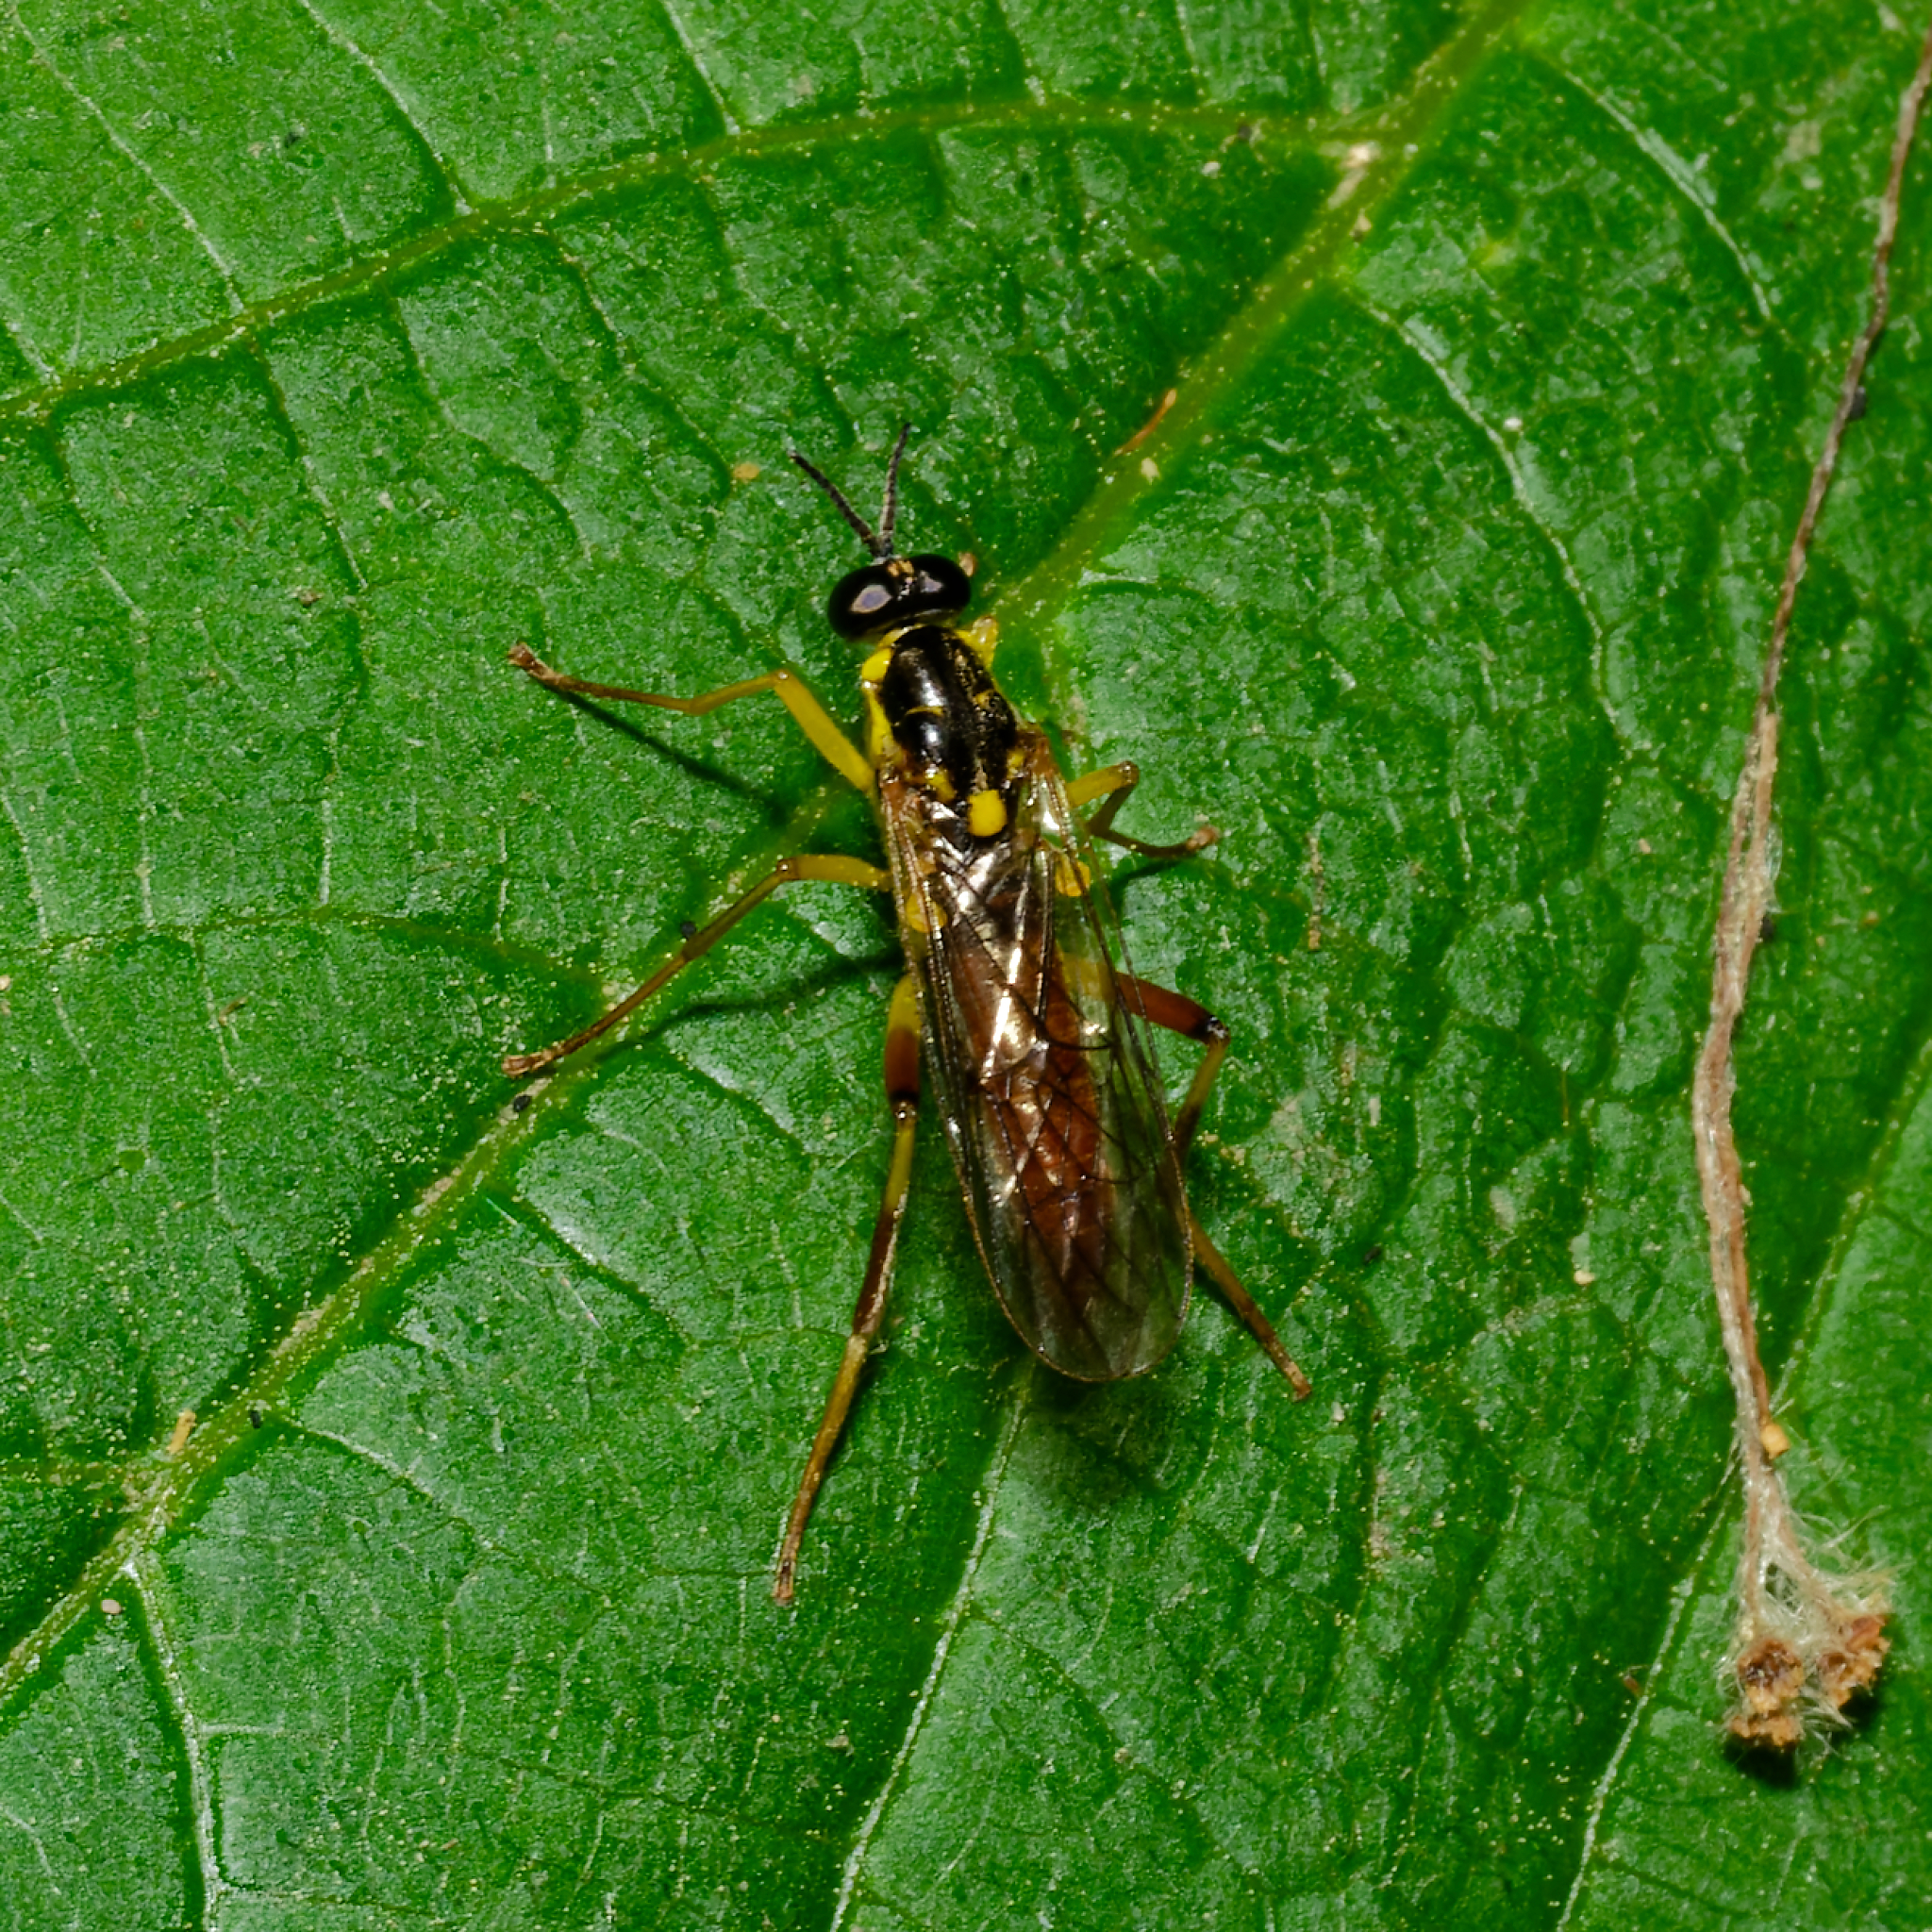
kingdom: Animalia
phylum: Arthropoda
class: Insecta
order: Diptera
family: Xylomyidae
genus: Xylomya
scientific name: Xylomya simillima
